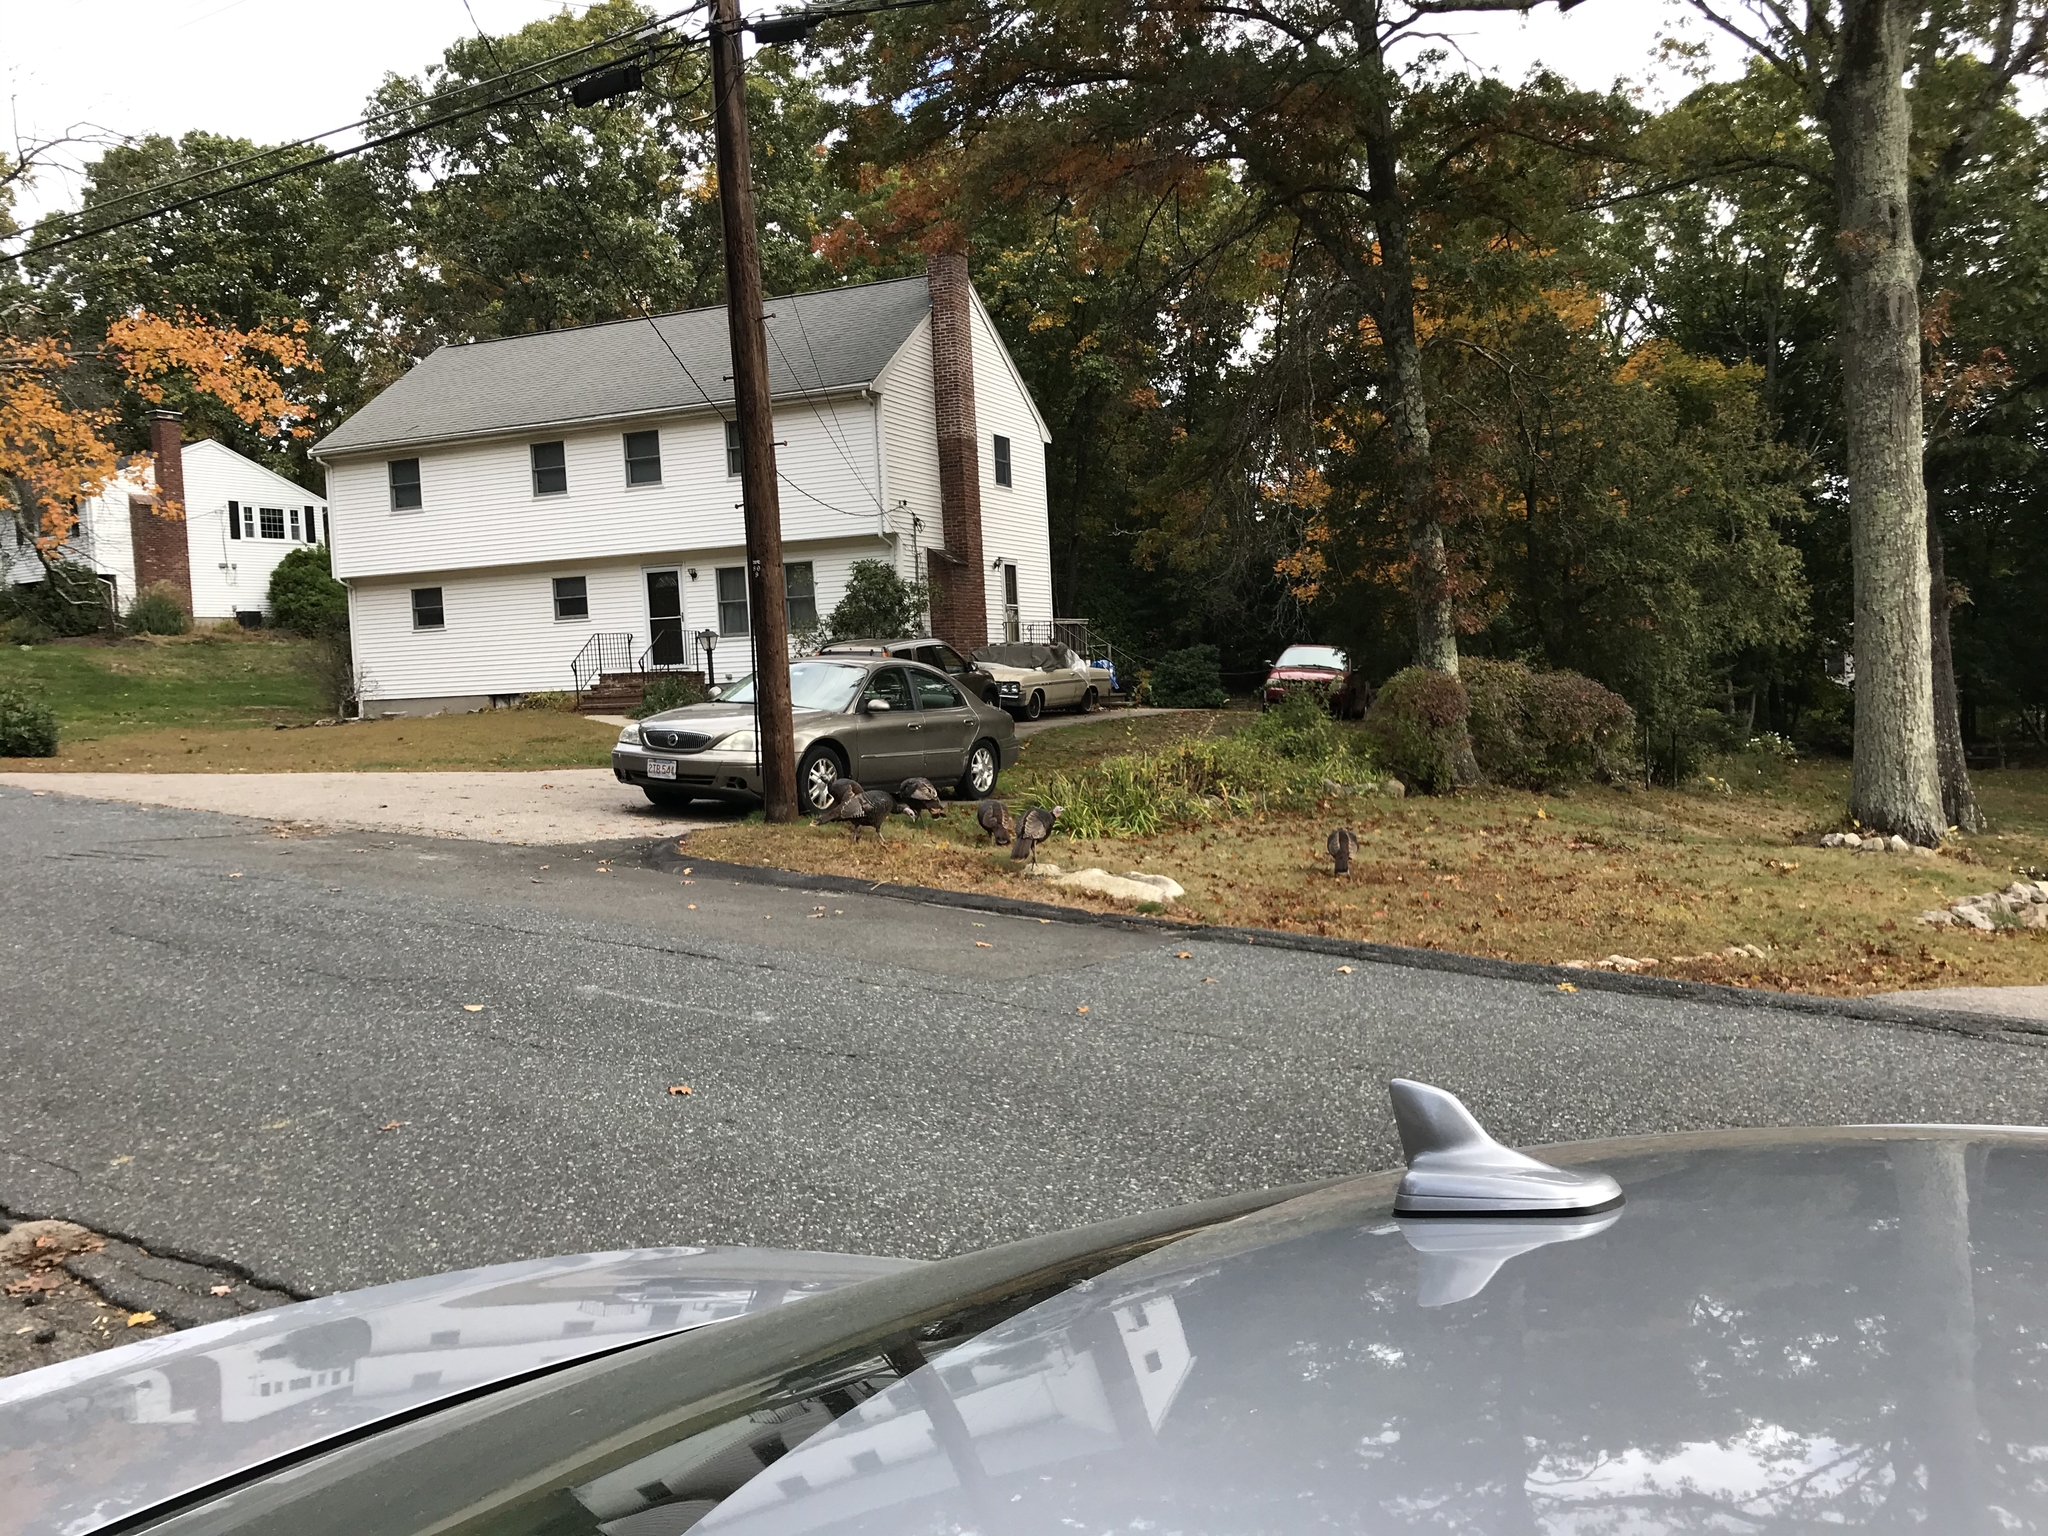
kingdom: Animalia
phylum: Chordata
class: Aves
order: Galliformes
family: Phasianidae
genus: Meleagris
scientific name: Meleagris gallopavo
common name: Wild turkey
